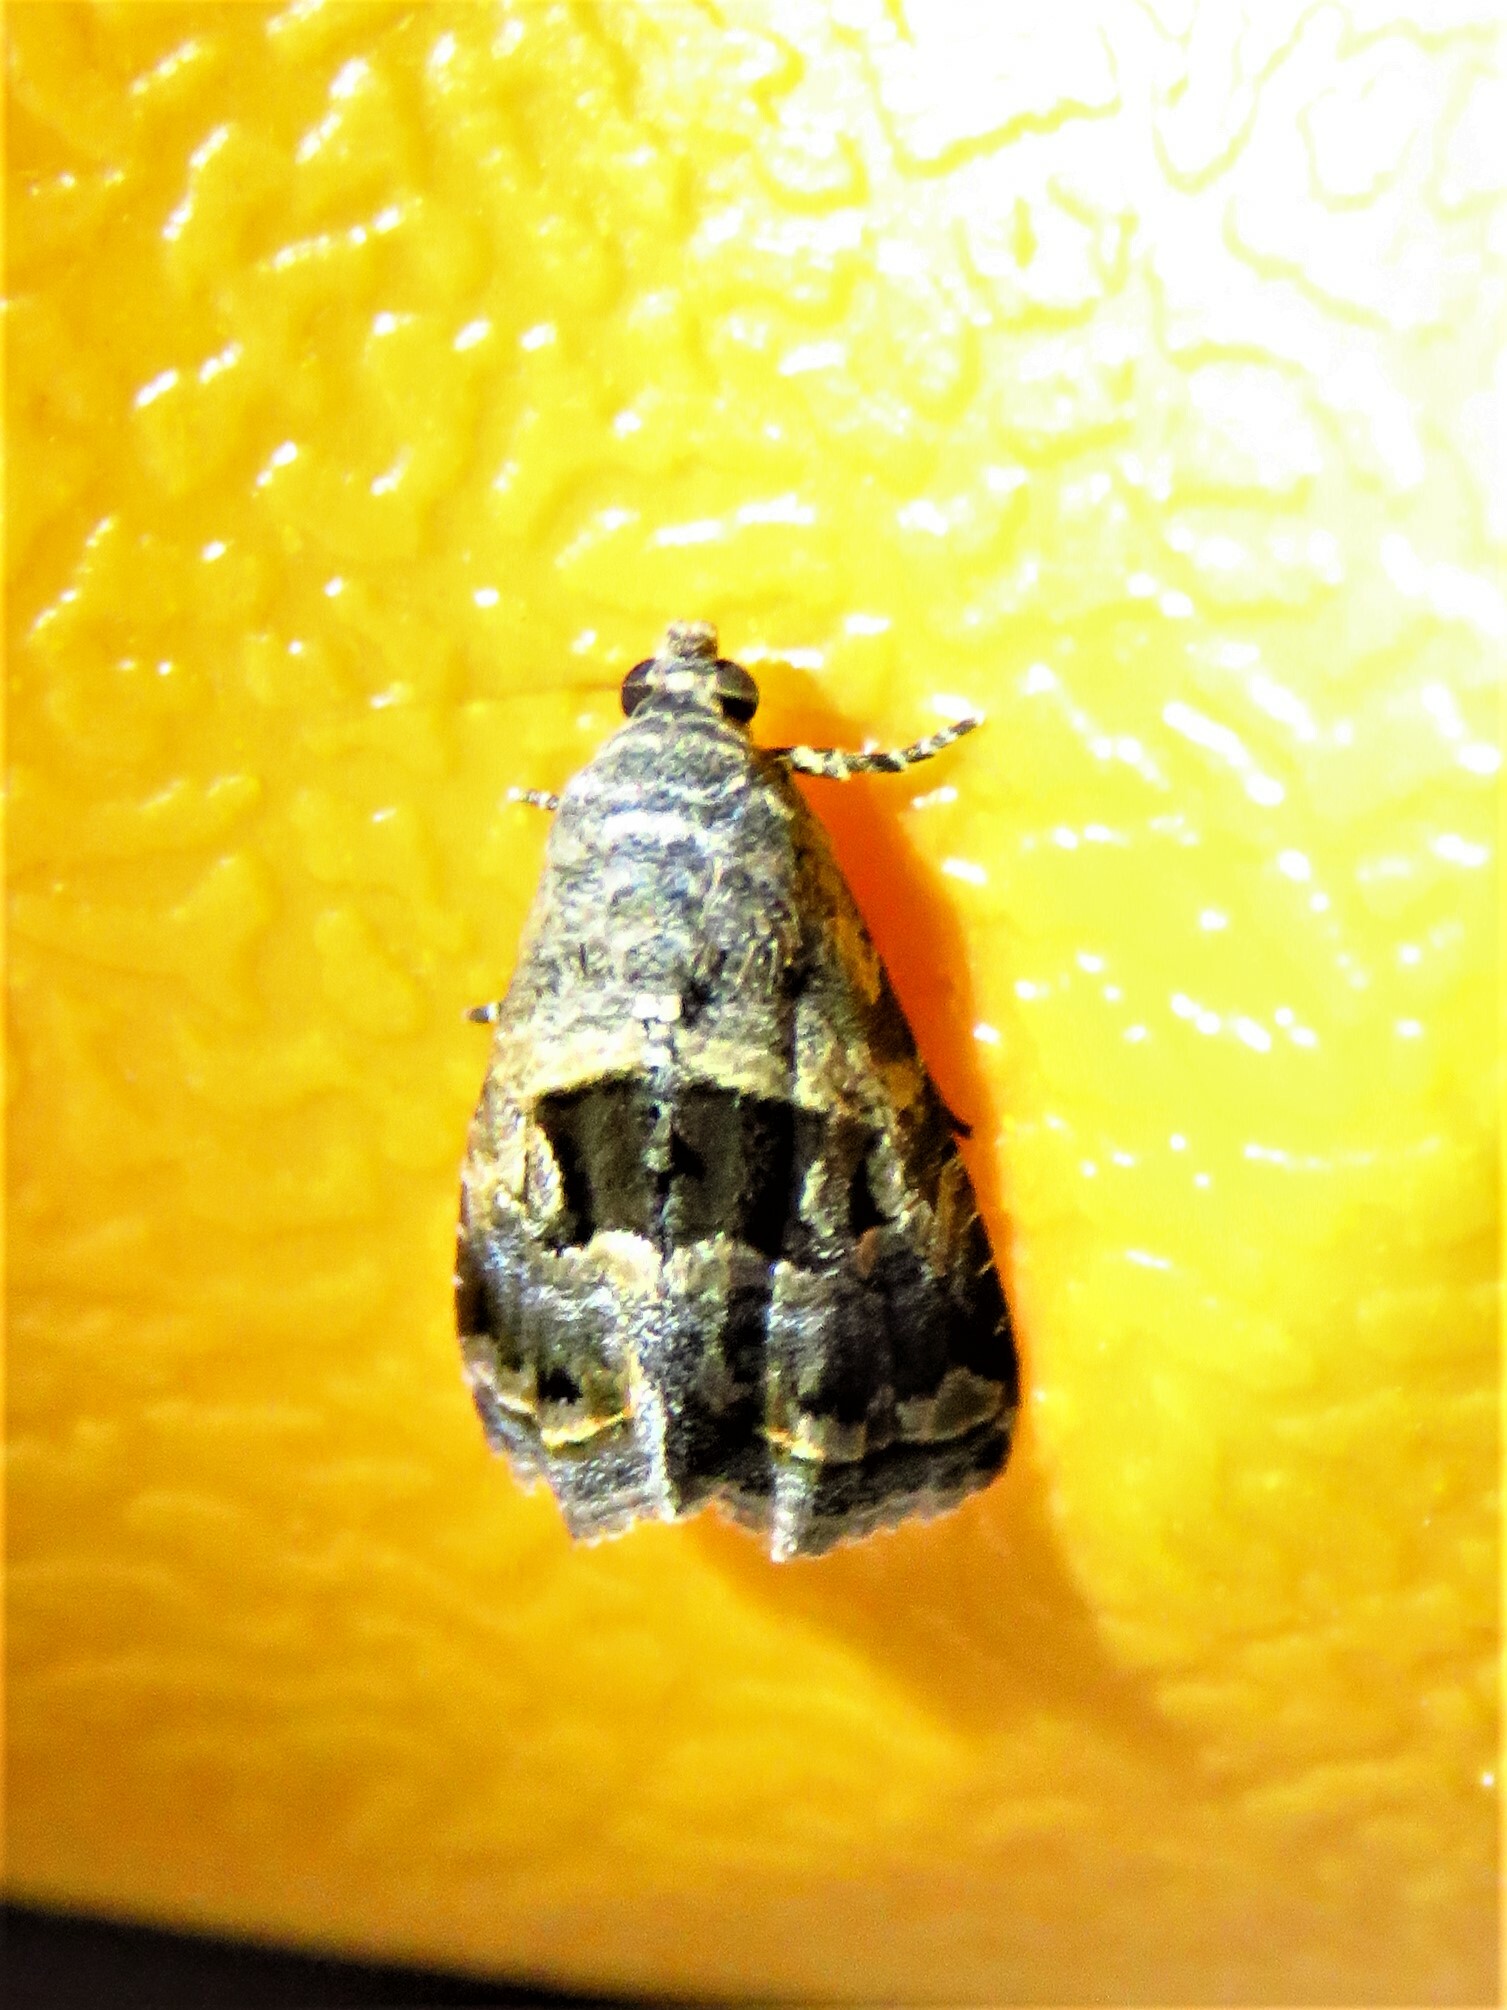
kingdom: Animalia
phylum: Arthropoda
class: Insecta
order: Lepidoptera
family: Noctuidae
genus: Tripudia
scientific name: Tripudia quadrifera
